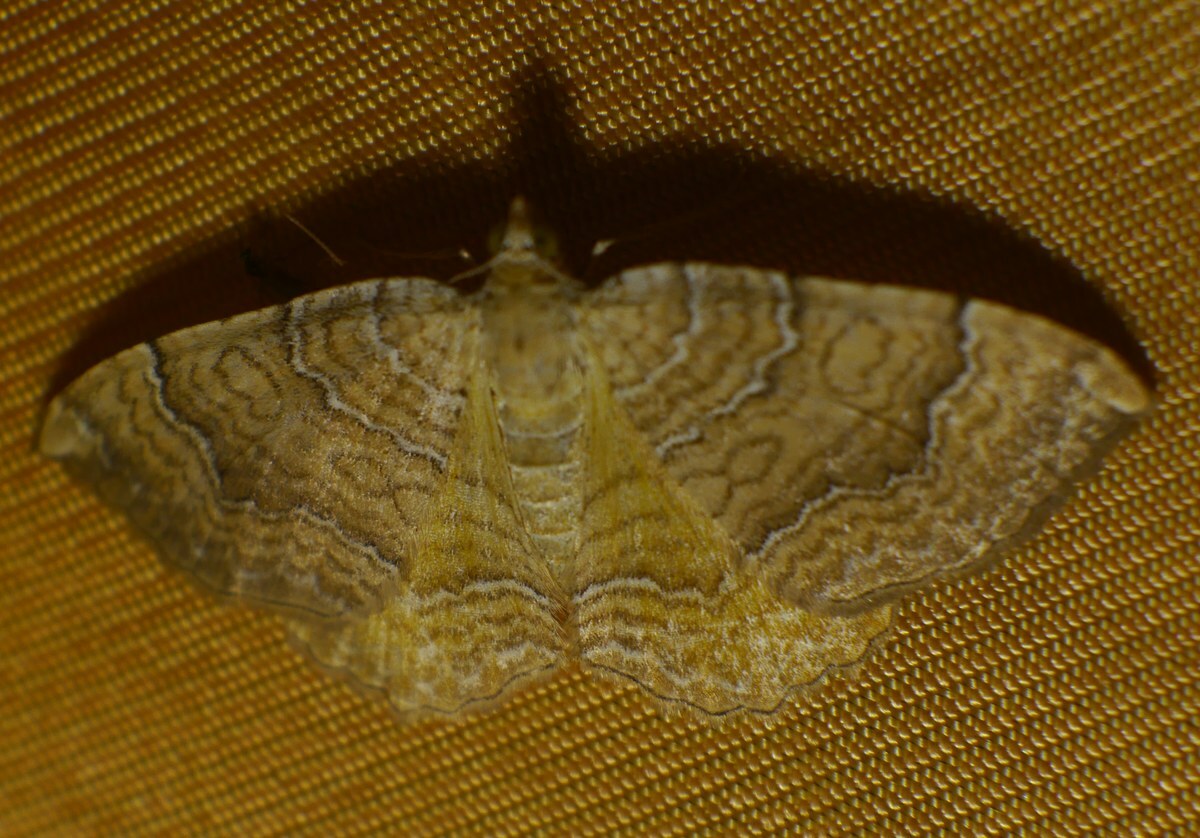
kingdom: Animalia
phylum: Arthropoda
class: Insecta
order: Lepidoptera
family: Geometridae
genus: Camptogramma
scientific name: Camptogramma bilineata
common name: Yellow shell
